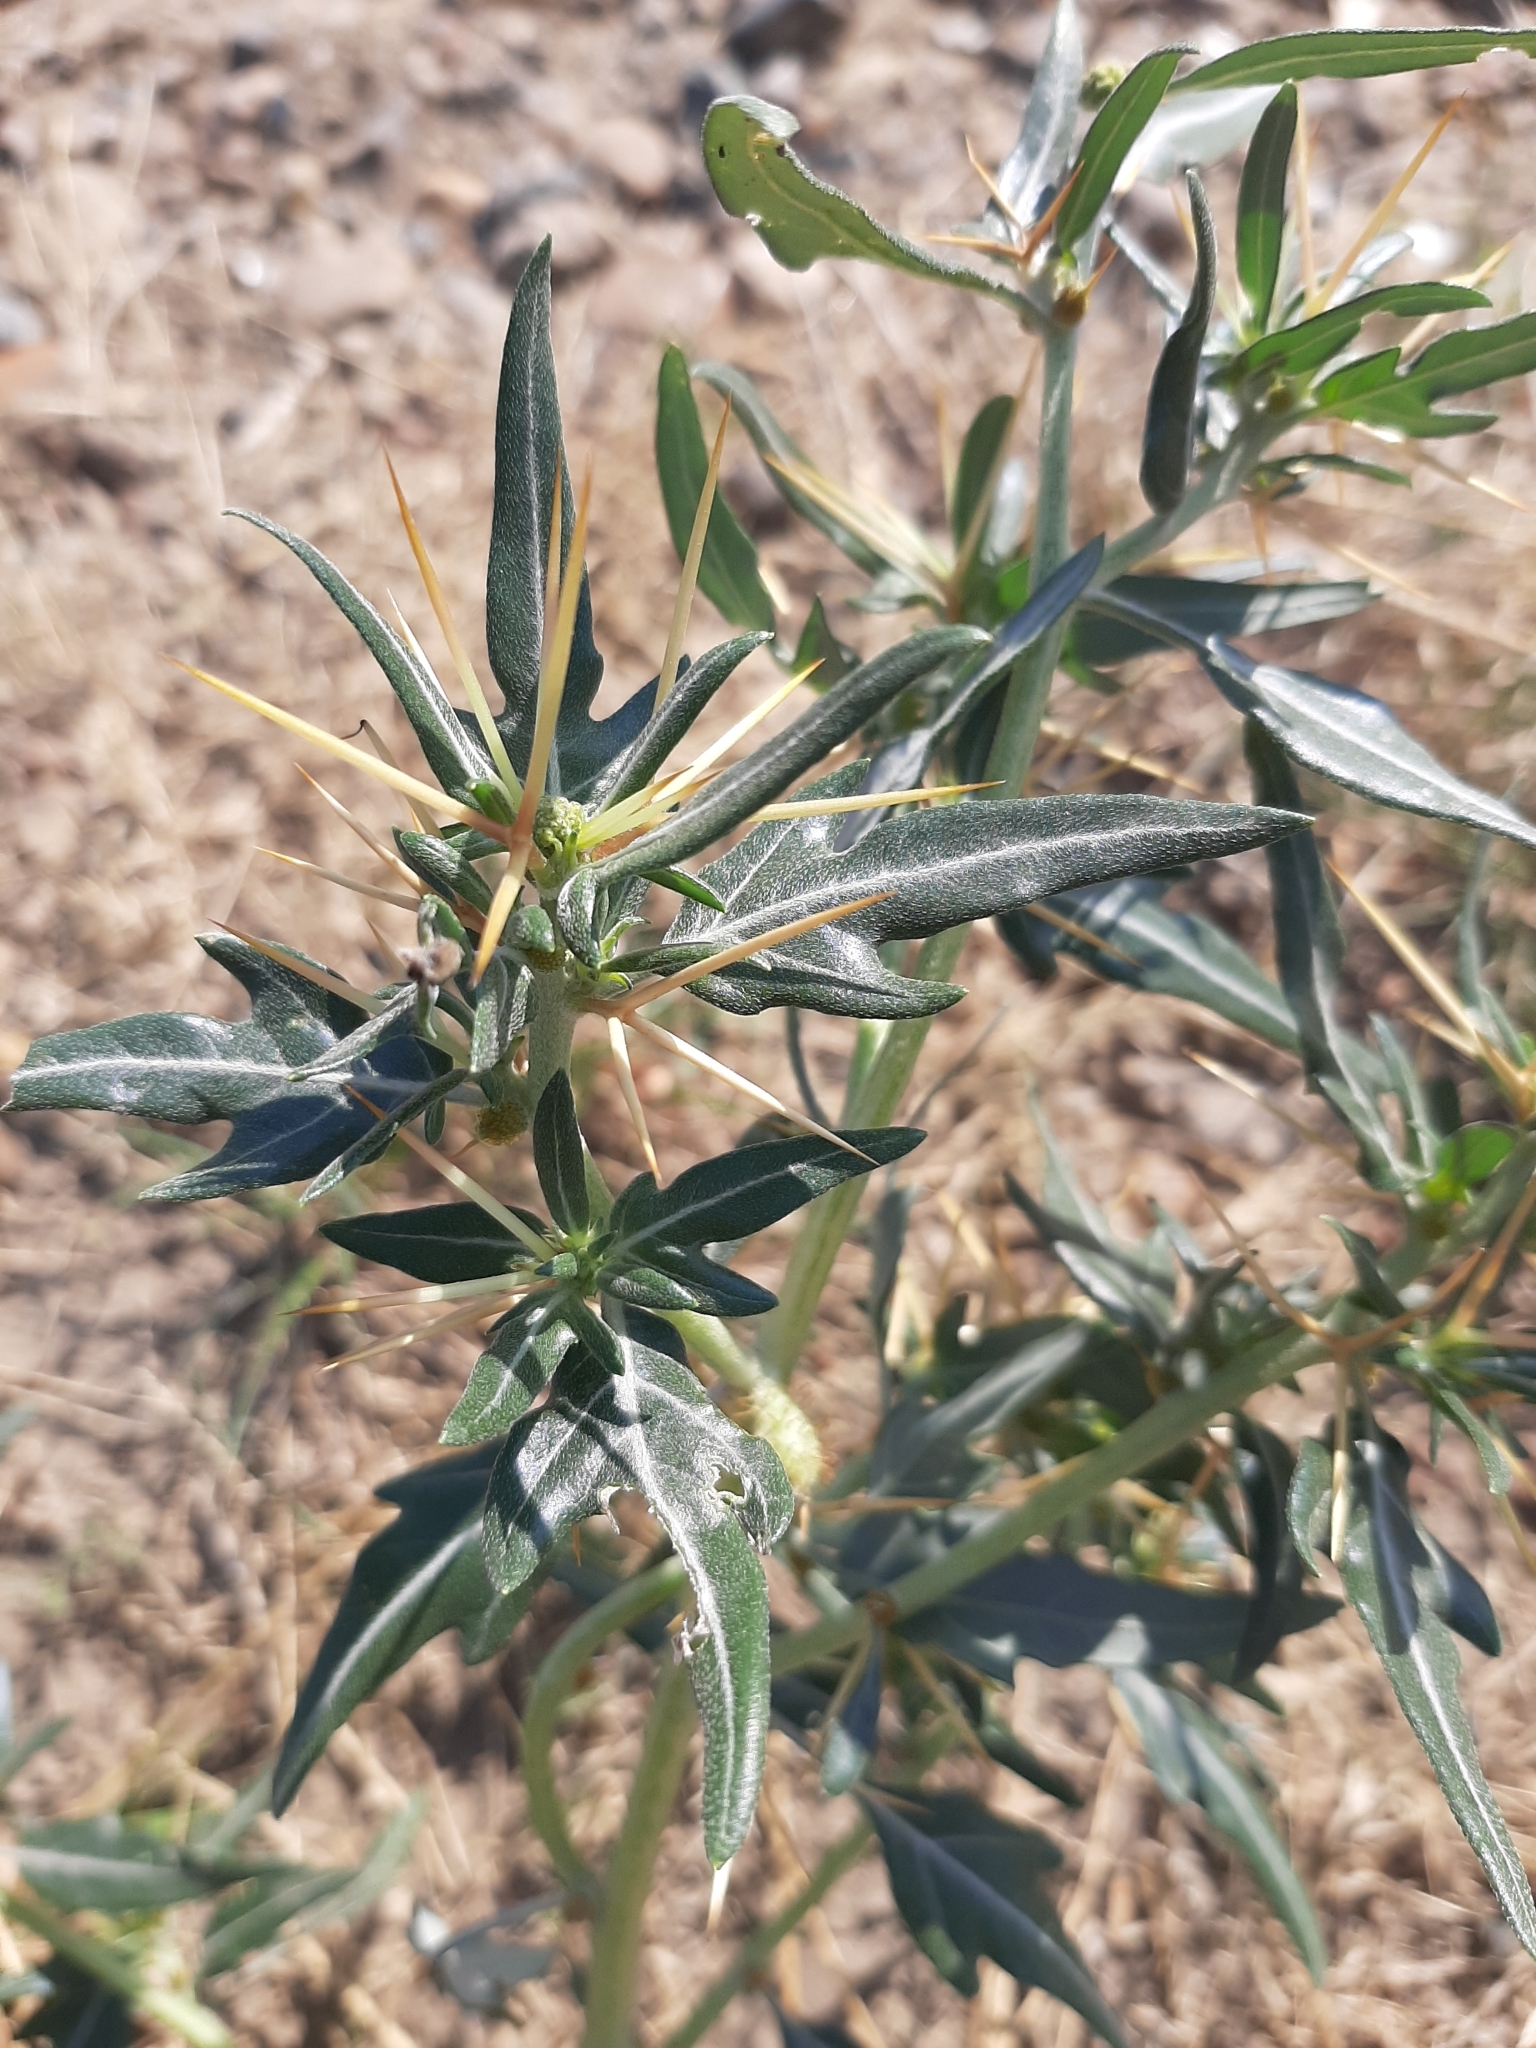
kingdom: Plantae
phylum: Tracheophyta
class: Magnoliopsida
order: Asterales
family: Asteraceae
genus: Xanthium
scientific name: Xanthium spinosum
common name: Spiny cocklebur
